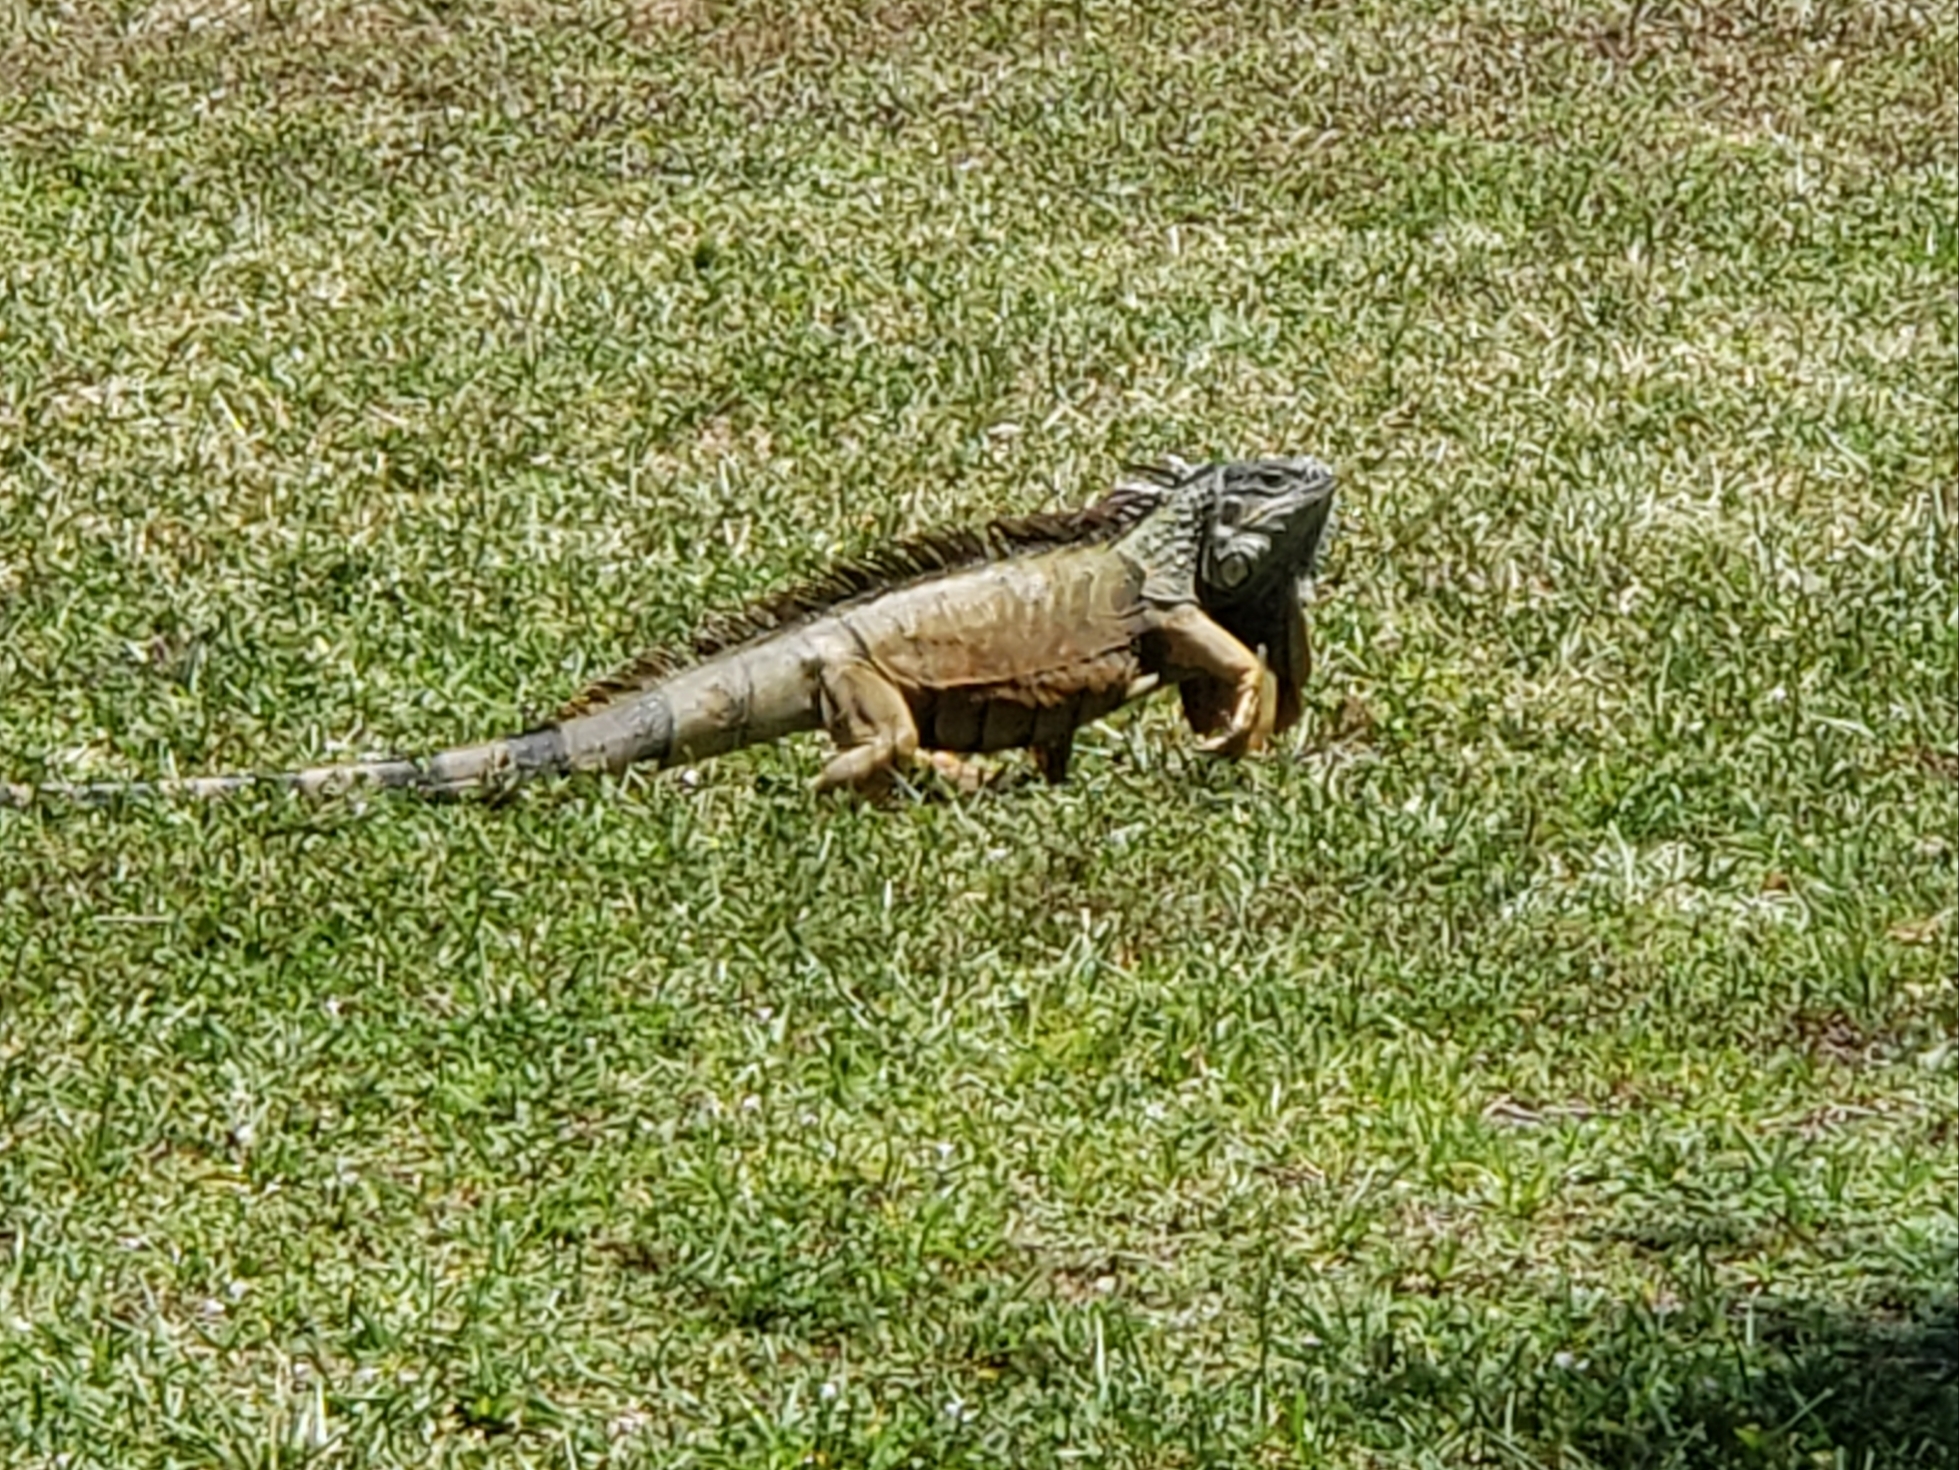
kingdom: Animalia
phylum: Chordata
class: Squamata
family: Iguanidae
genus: Iguana
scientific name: Iguana iguana
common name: Green iguana
